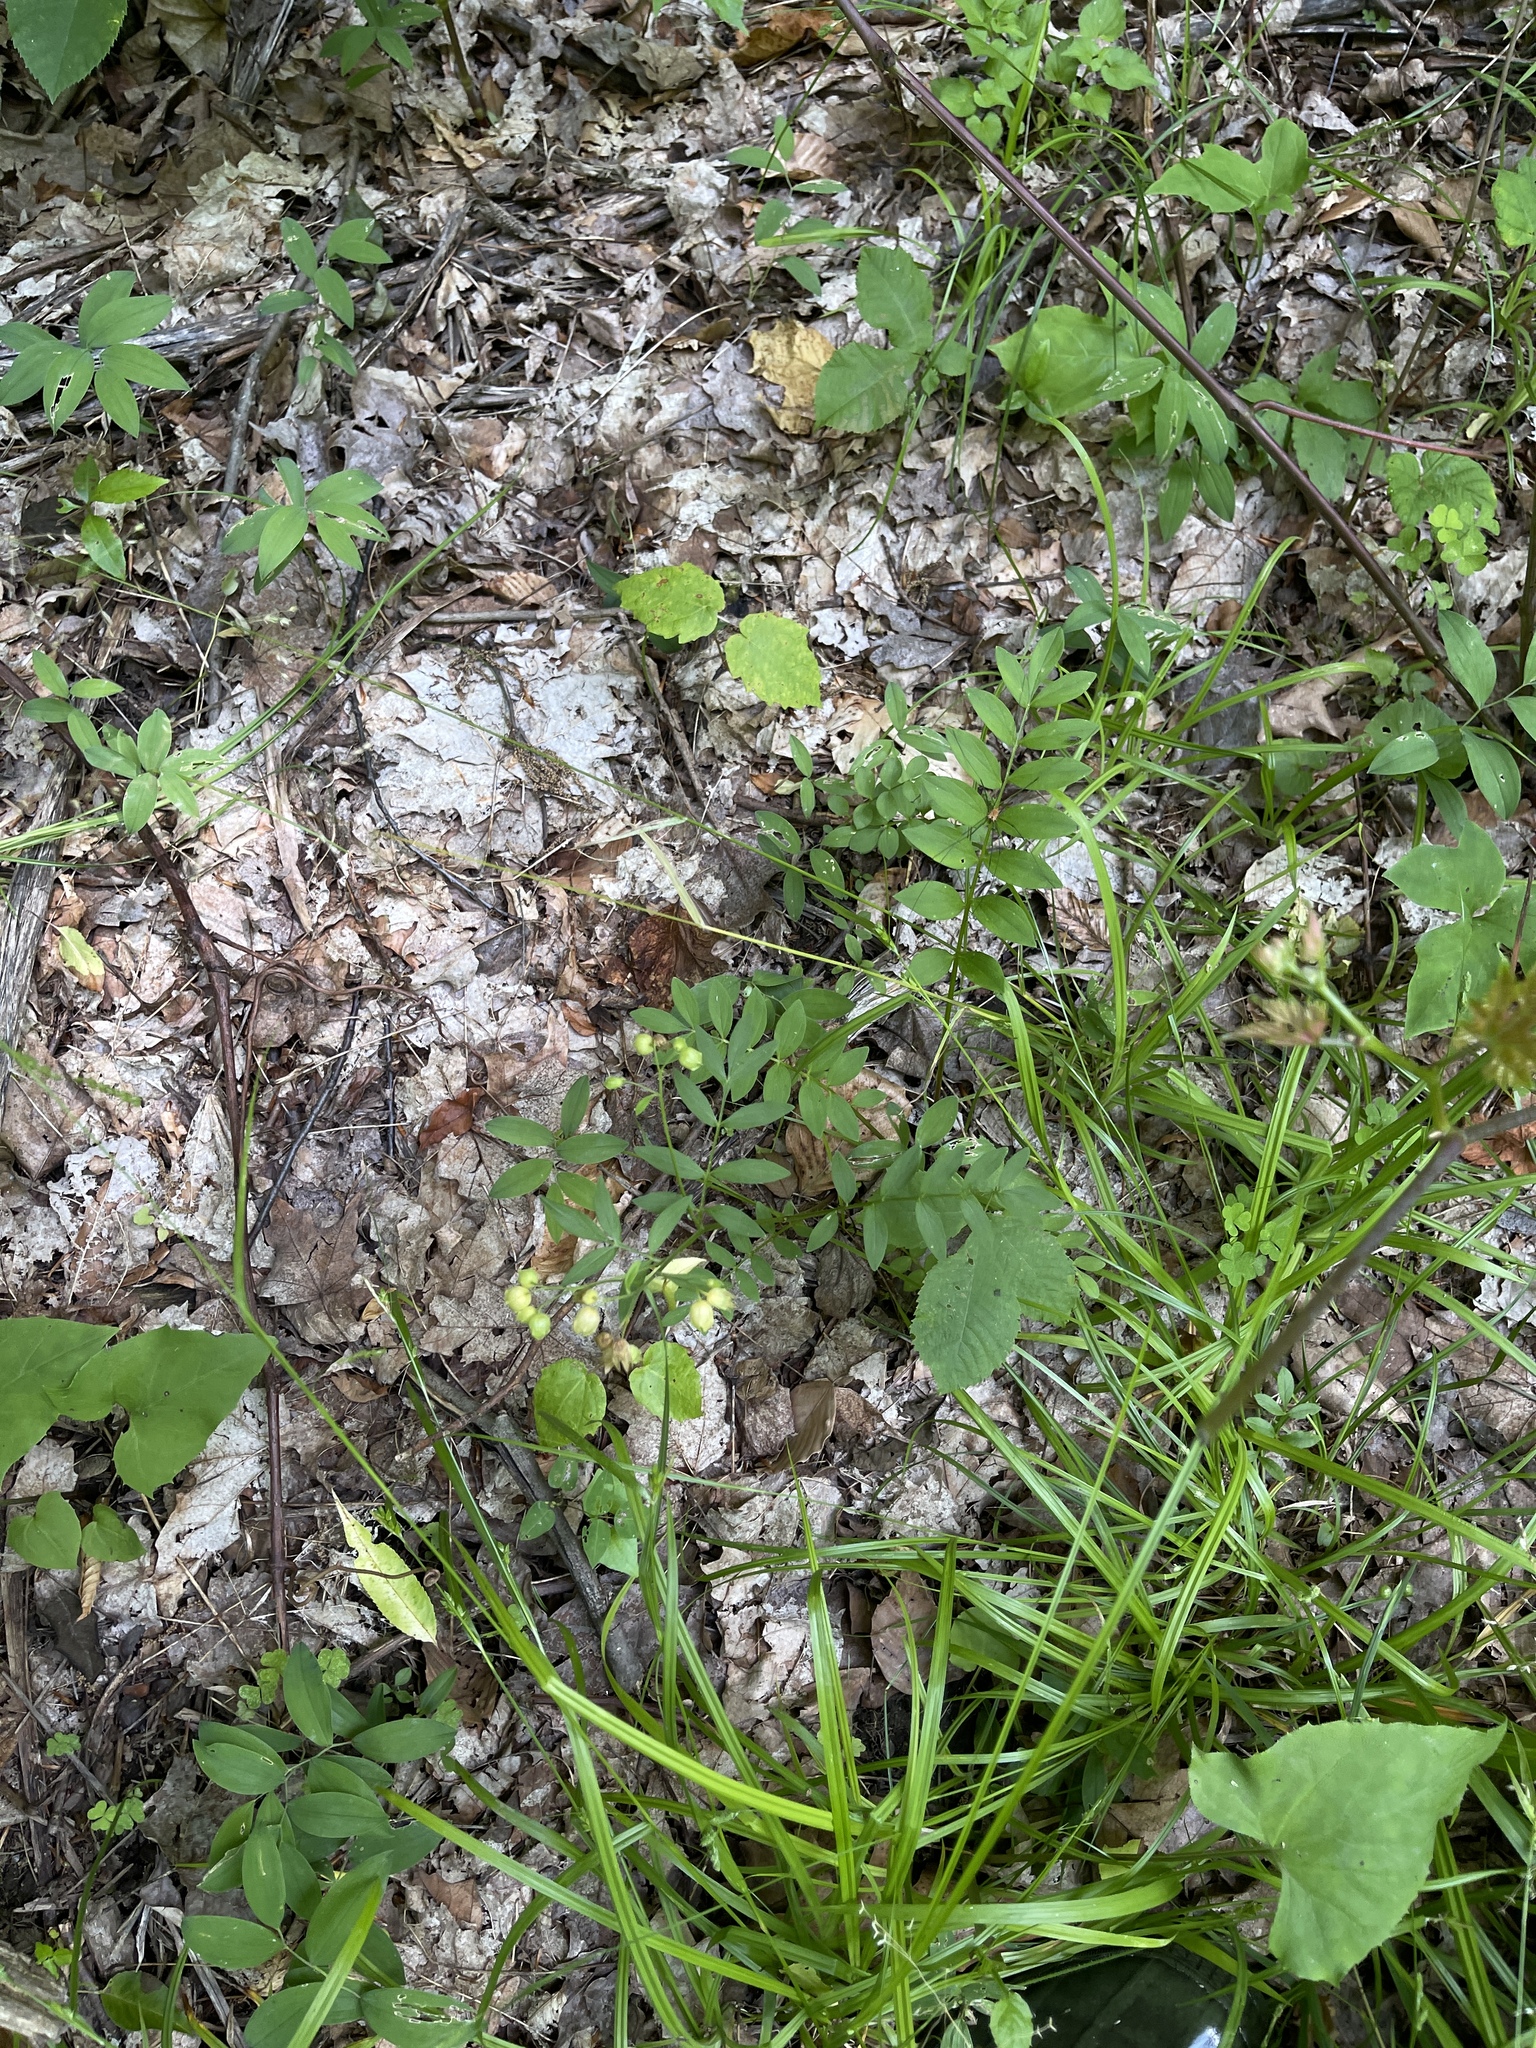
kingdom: Plantae
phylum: Tracheophyta
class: Magnoliopsida
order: Ericales
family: Polemoniaceae
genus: Polemonium
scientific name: Polemonium reptans
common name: Creeping jacob's-ladder
